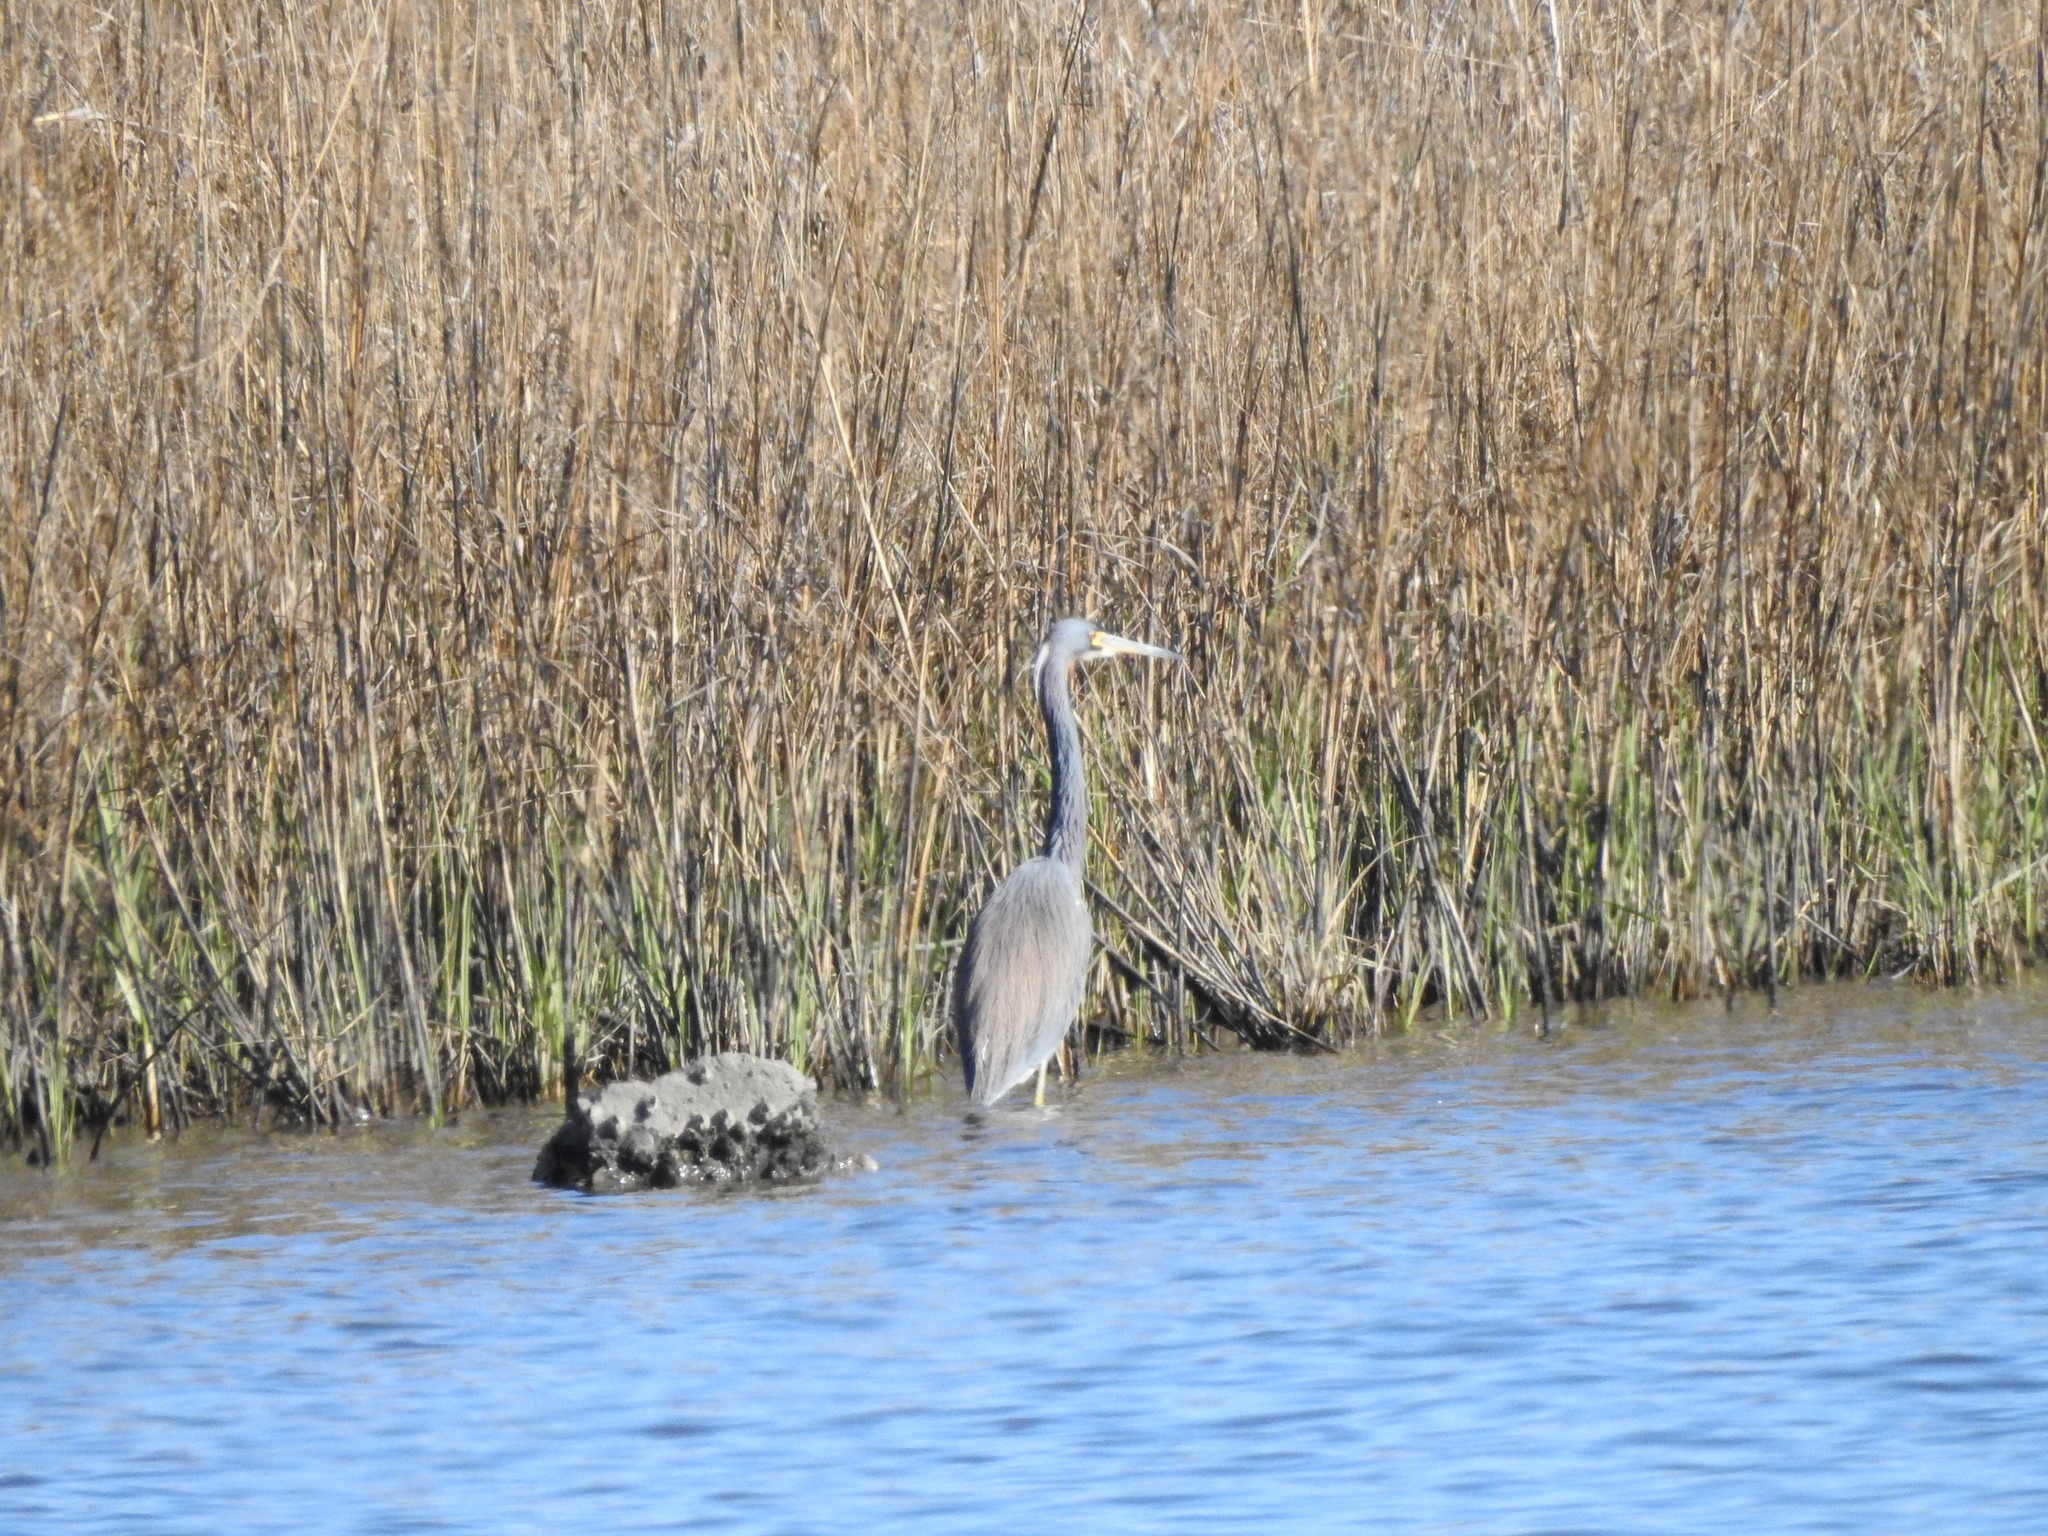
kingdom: Animalia
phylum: Chordata
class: Aves
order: Pelecaniformes
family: Ardeidae
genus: Egretta
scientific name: Egretta tricolor
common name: Tricolored heron
